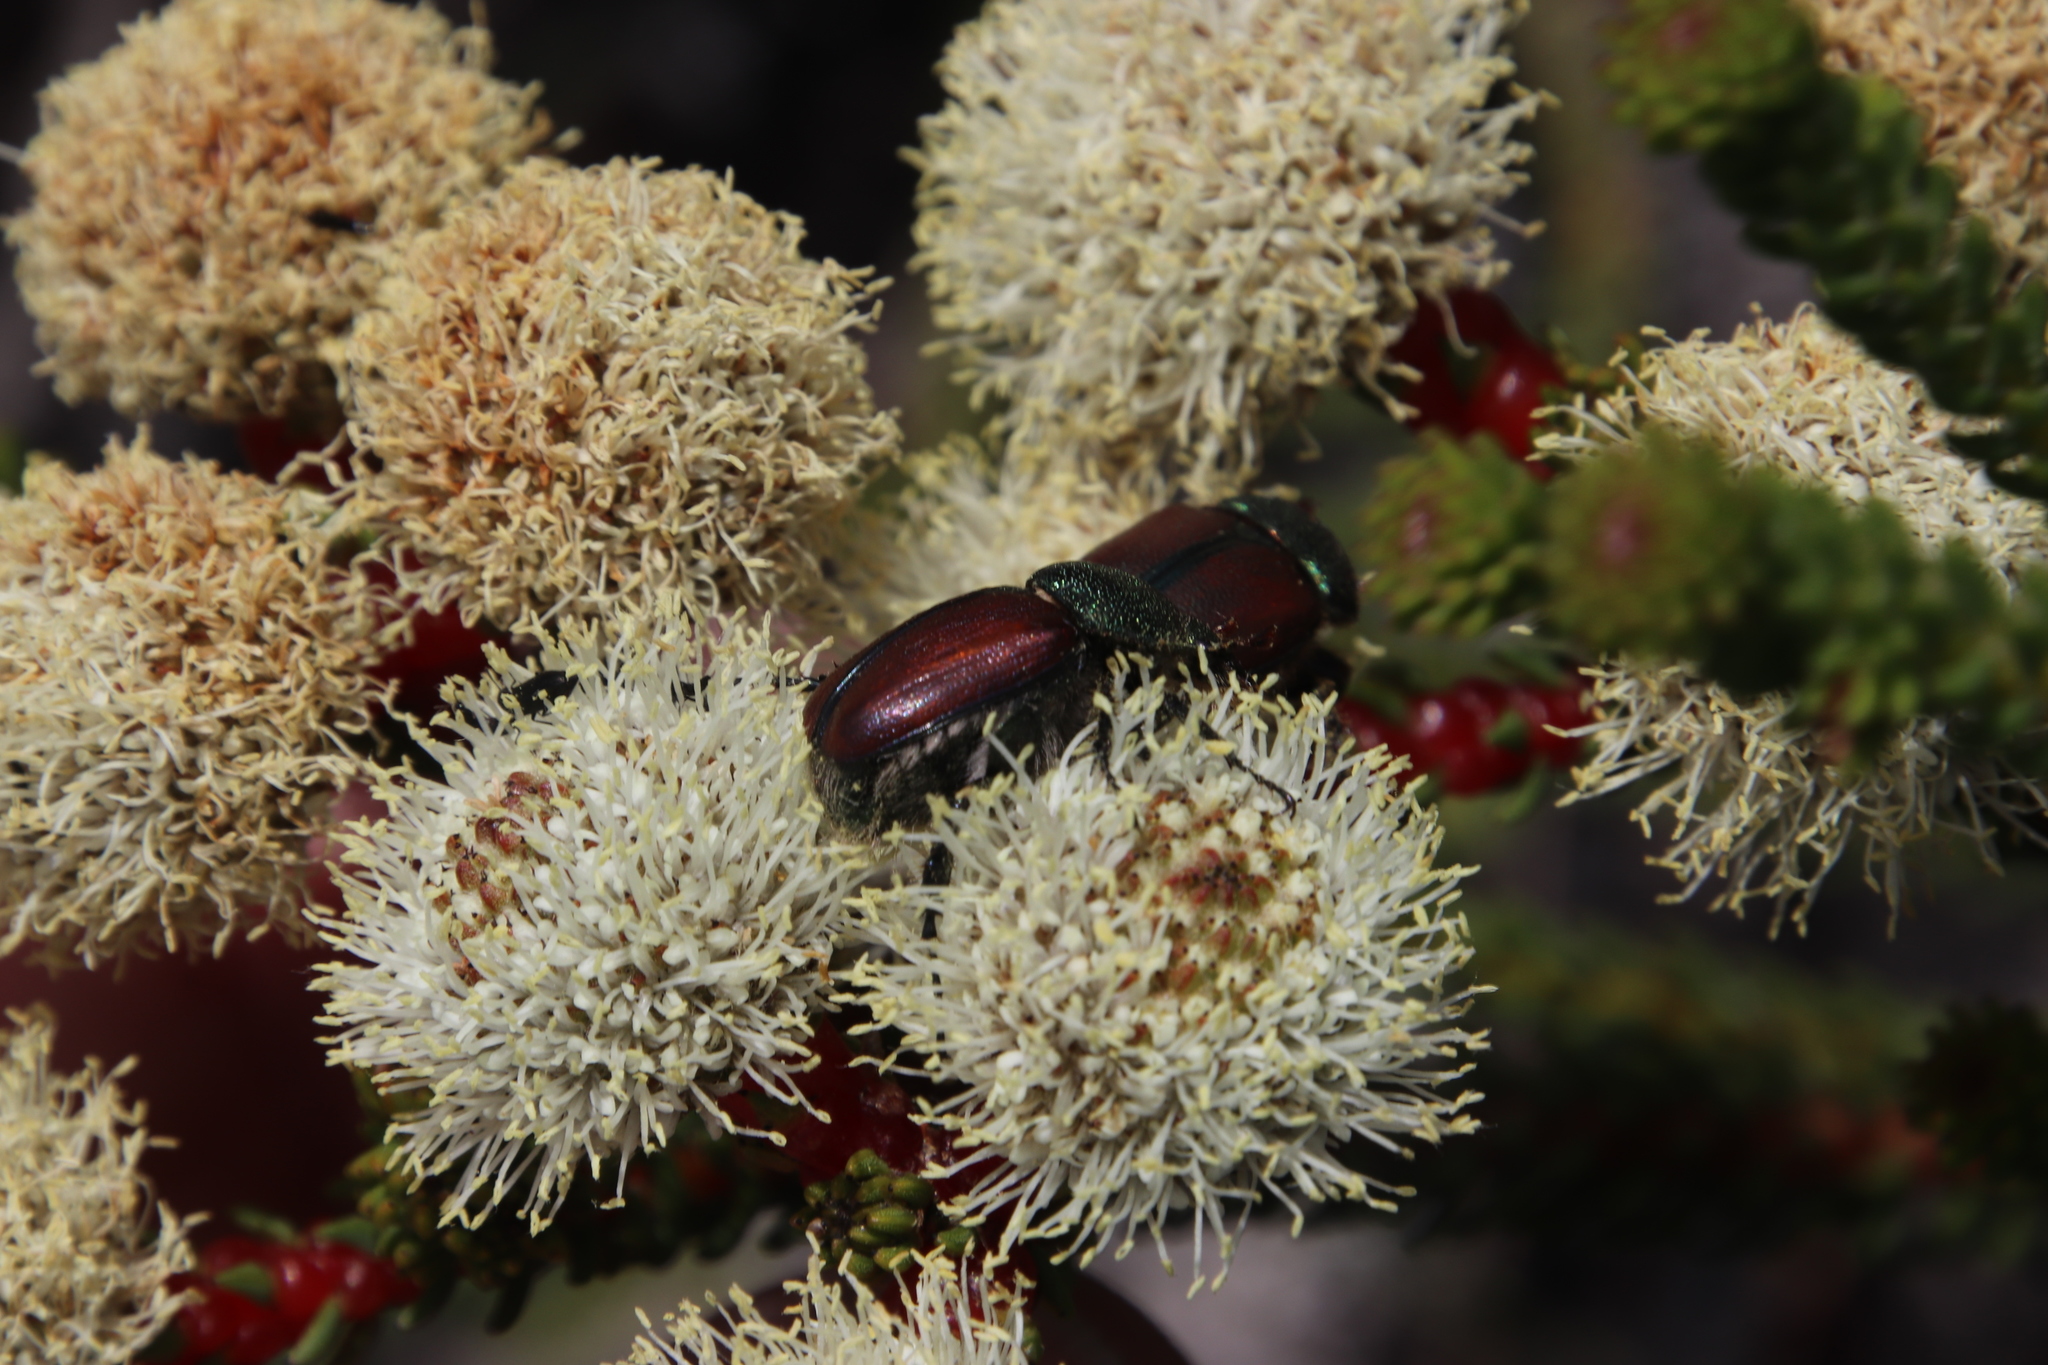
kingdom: Plantae
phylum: Tracheophyta
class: Magnoliopsida
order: Bruniales
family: Bruniaceae
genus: Berzelia
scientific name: Berzelia abrotanoides
